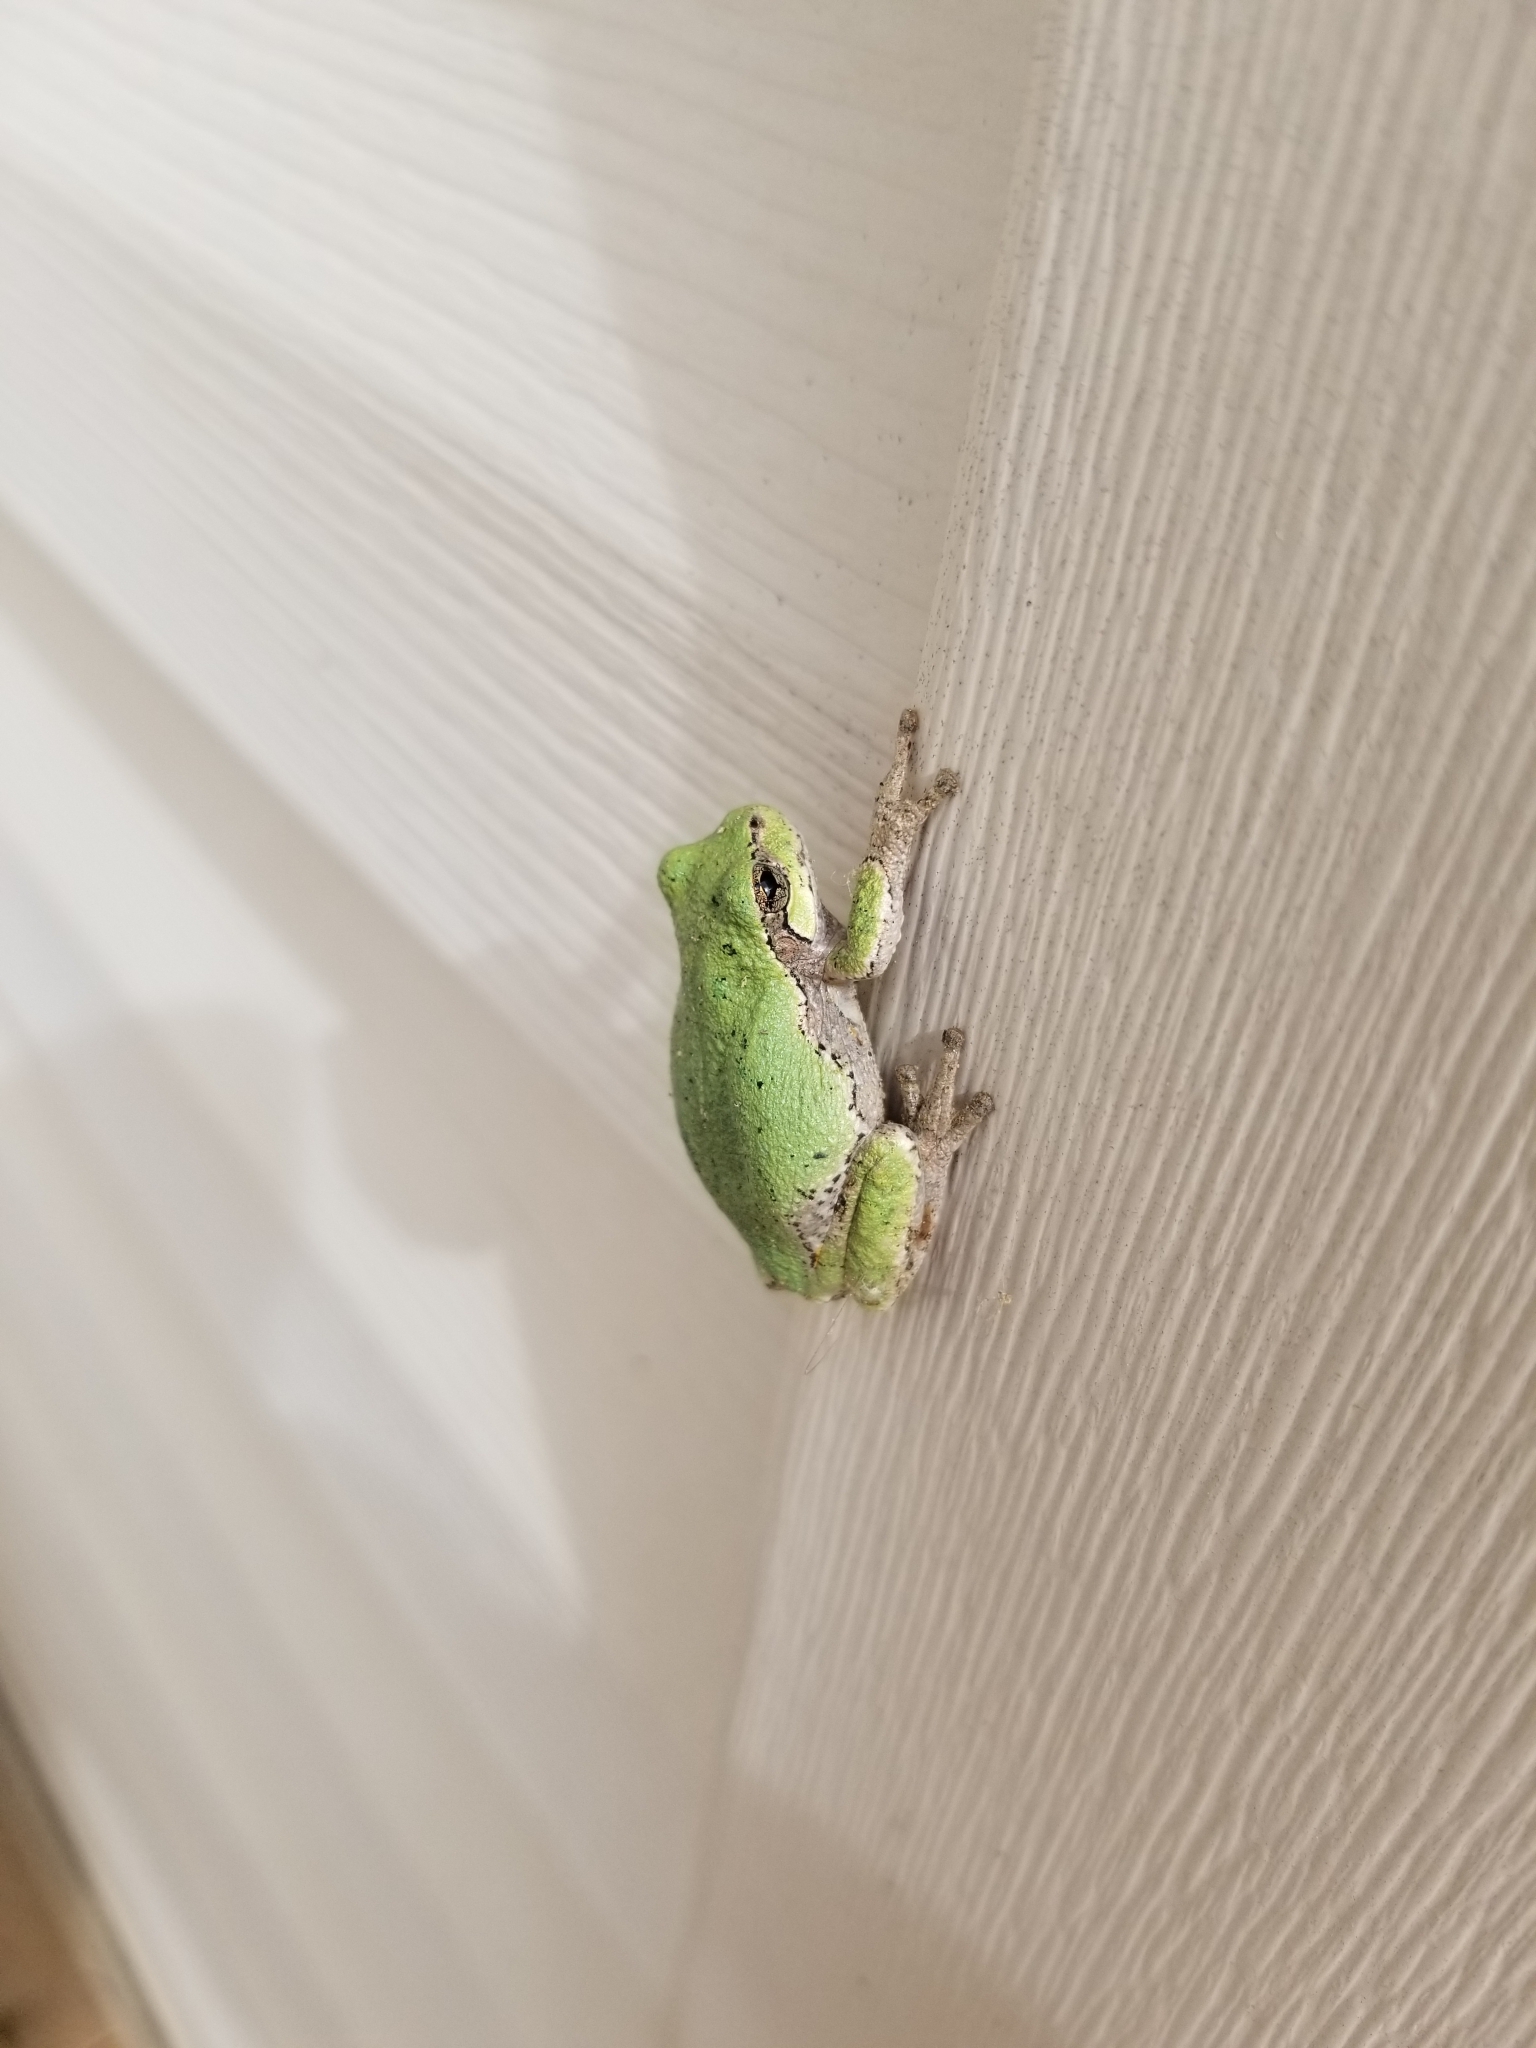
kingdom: Animalia
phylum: Chordata
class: Amphibia
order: Anura
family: Hylidae
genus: Hyla
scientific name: Hyla
